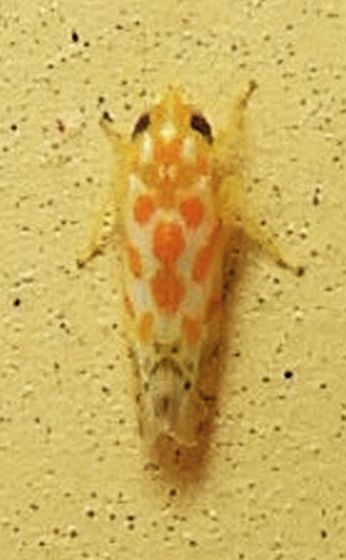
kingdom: Animalia
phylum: Arthropoda
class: Insecta
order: Hemiptera
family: Cicadellidae
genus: Alconeura
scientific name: Alconeura dodonana
